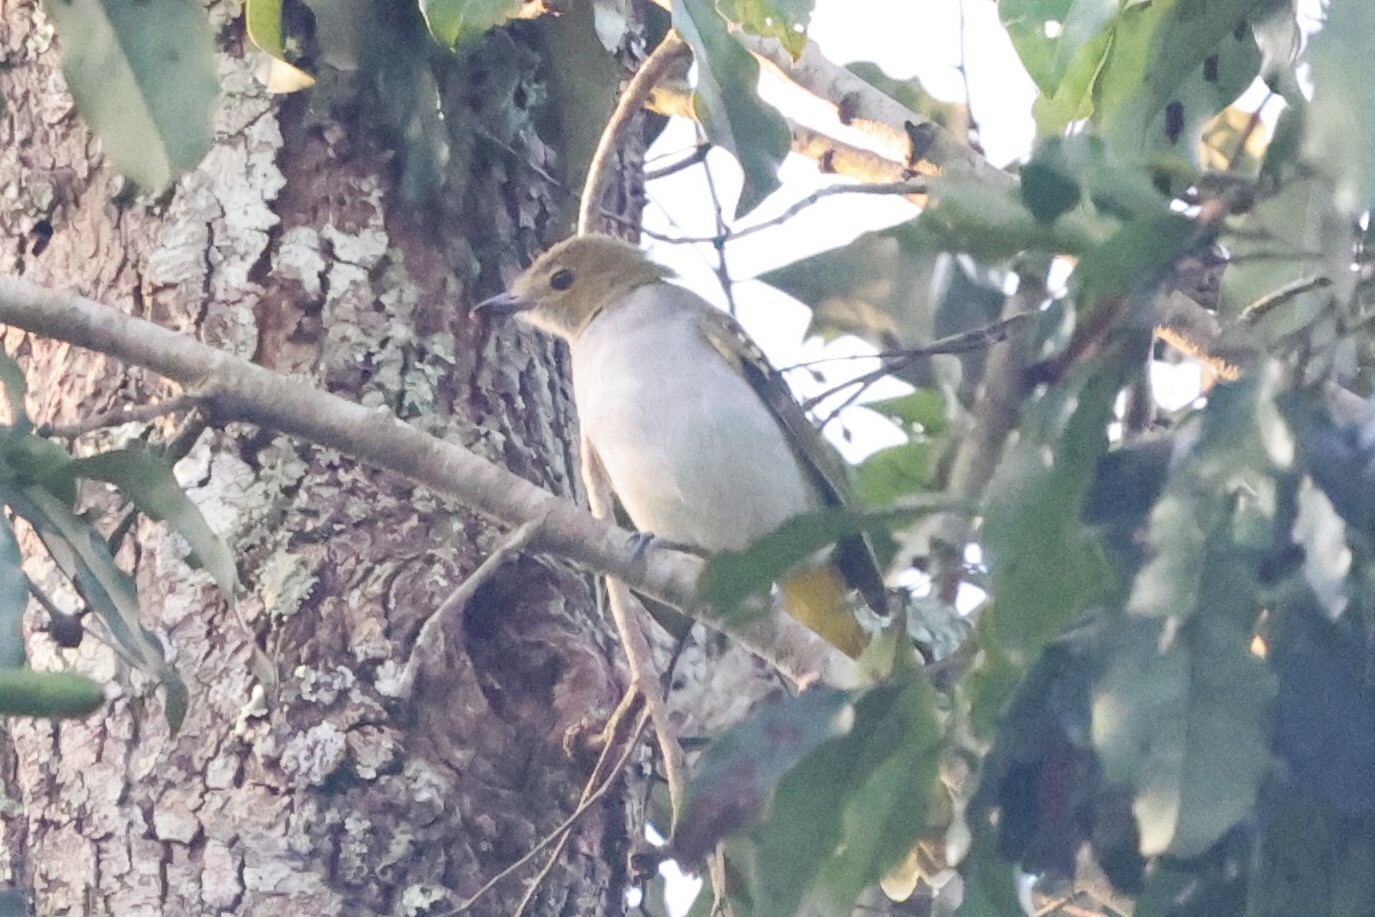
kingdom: Animalia
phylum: Chordata
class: Aves
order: Passeriformes
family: Nicatoridae
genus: Nicator
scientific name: Nicator chloris
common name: Western nicator
